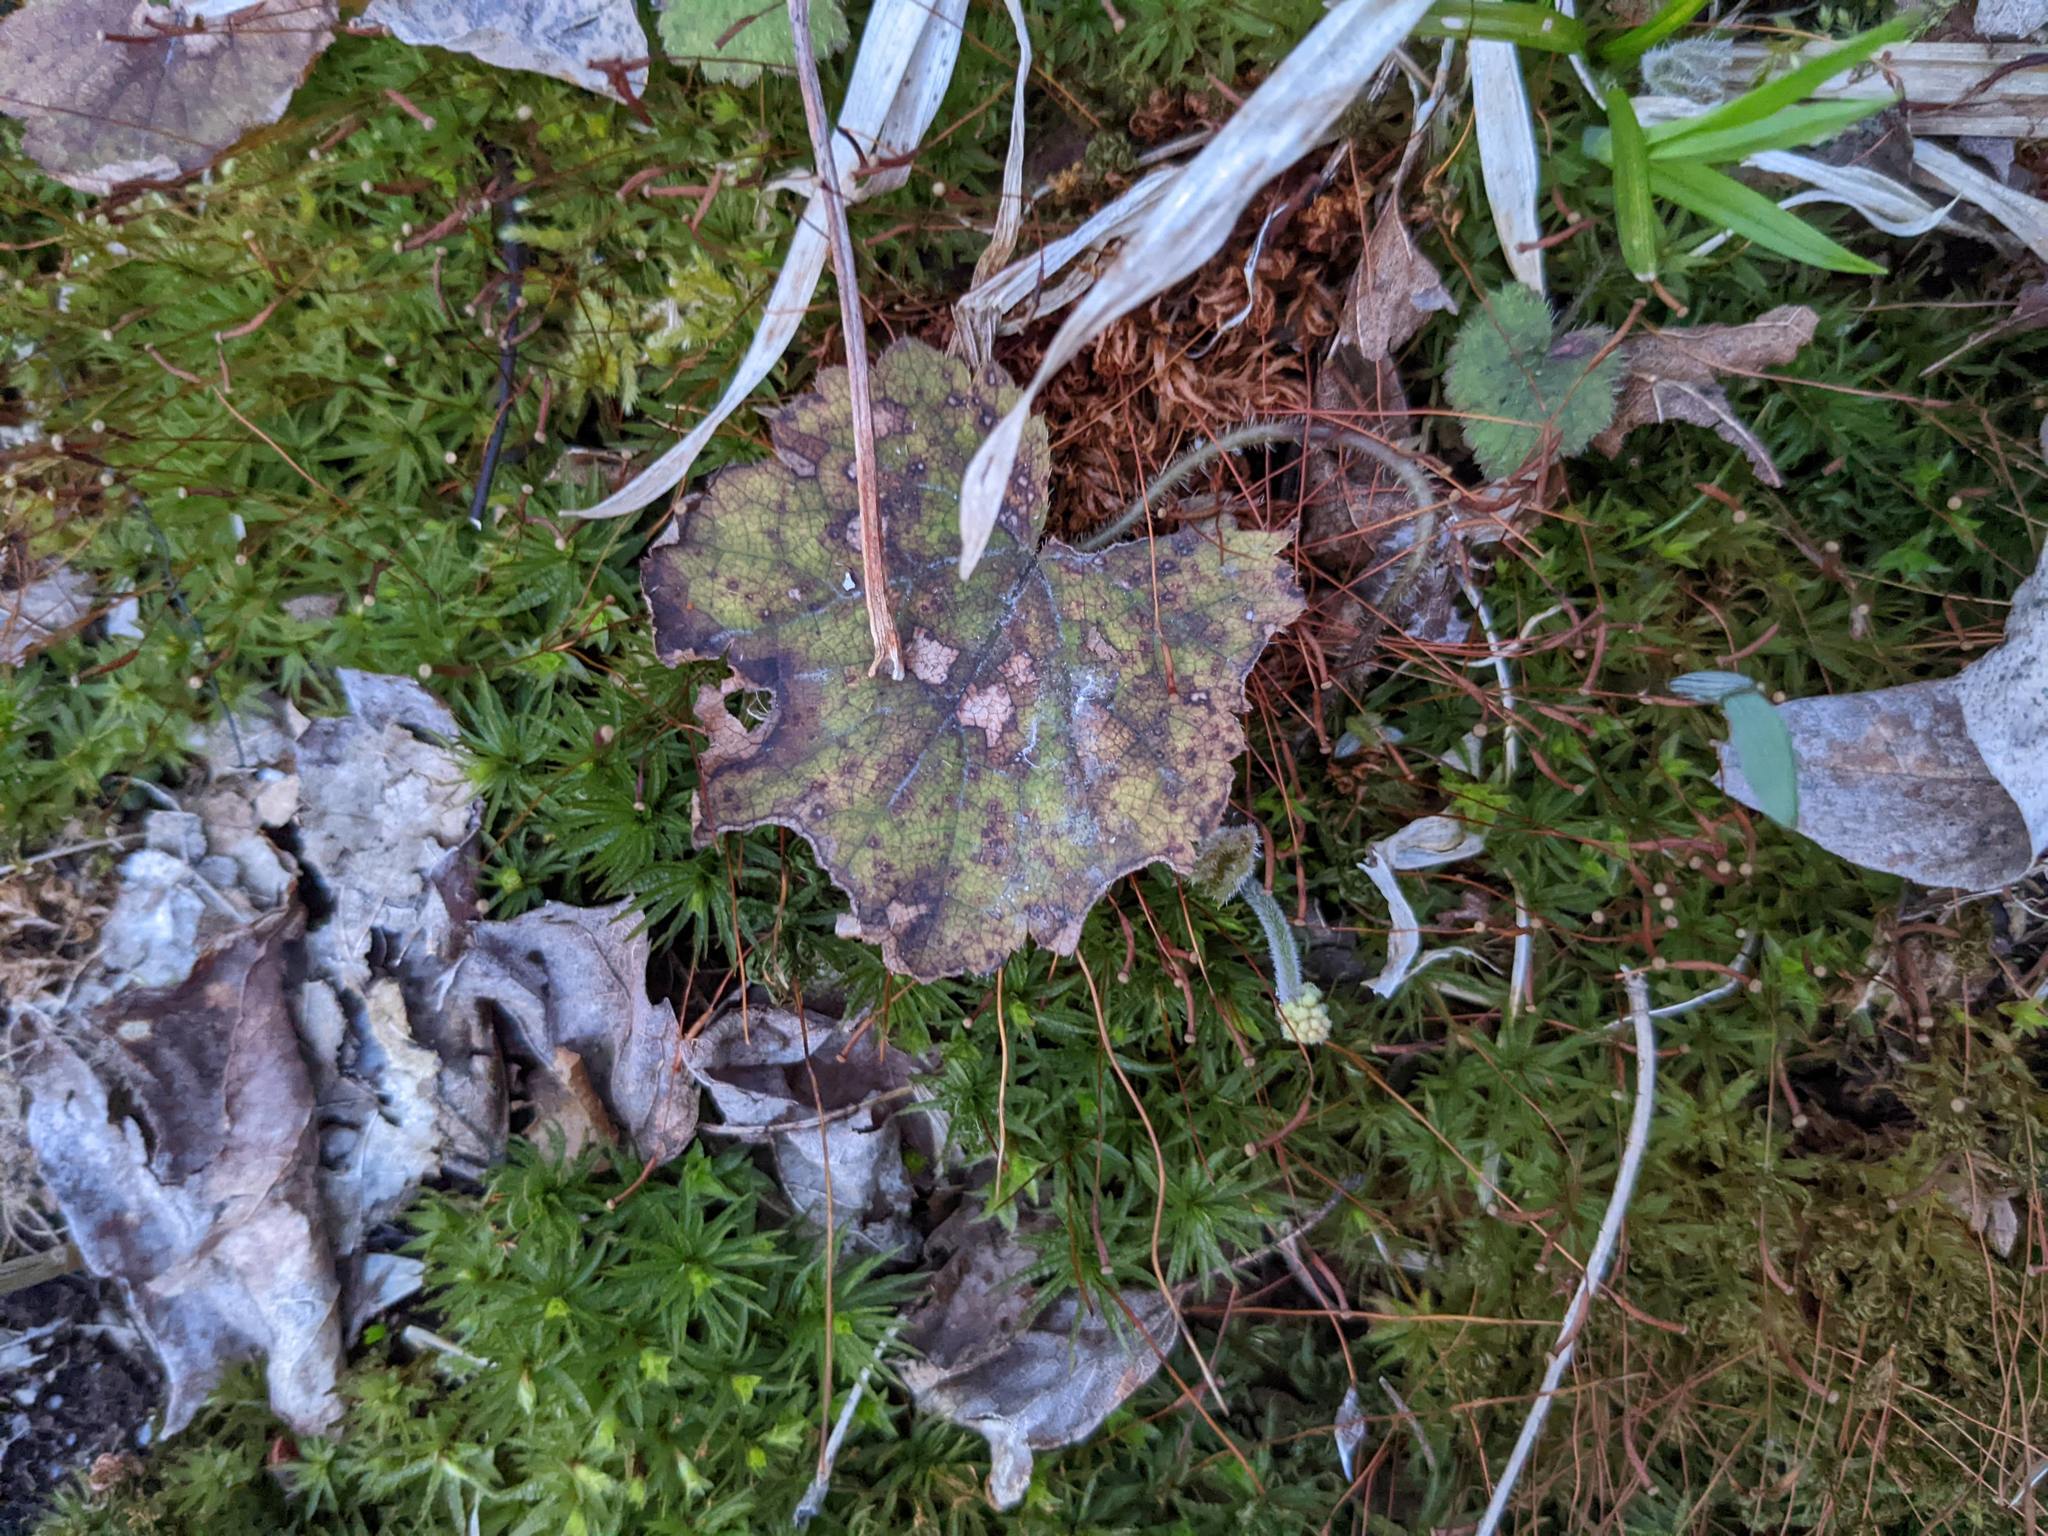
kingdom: Plantae
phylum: Tracheophyta
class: Magnoliopsida
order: Saxifragales
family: Saxifragaceae
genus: Tiarella
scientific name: Tiarella stolonifera
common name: Stoloniferous foamflower
